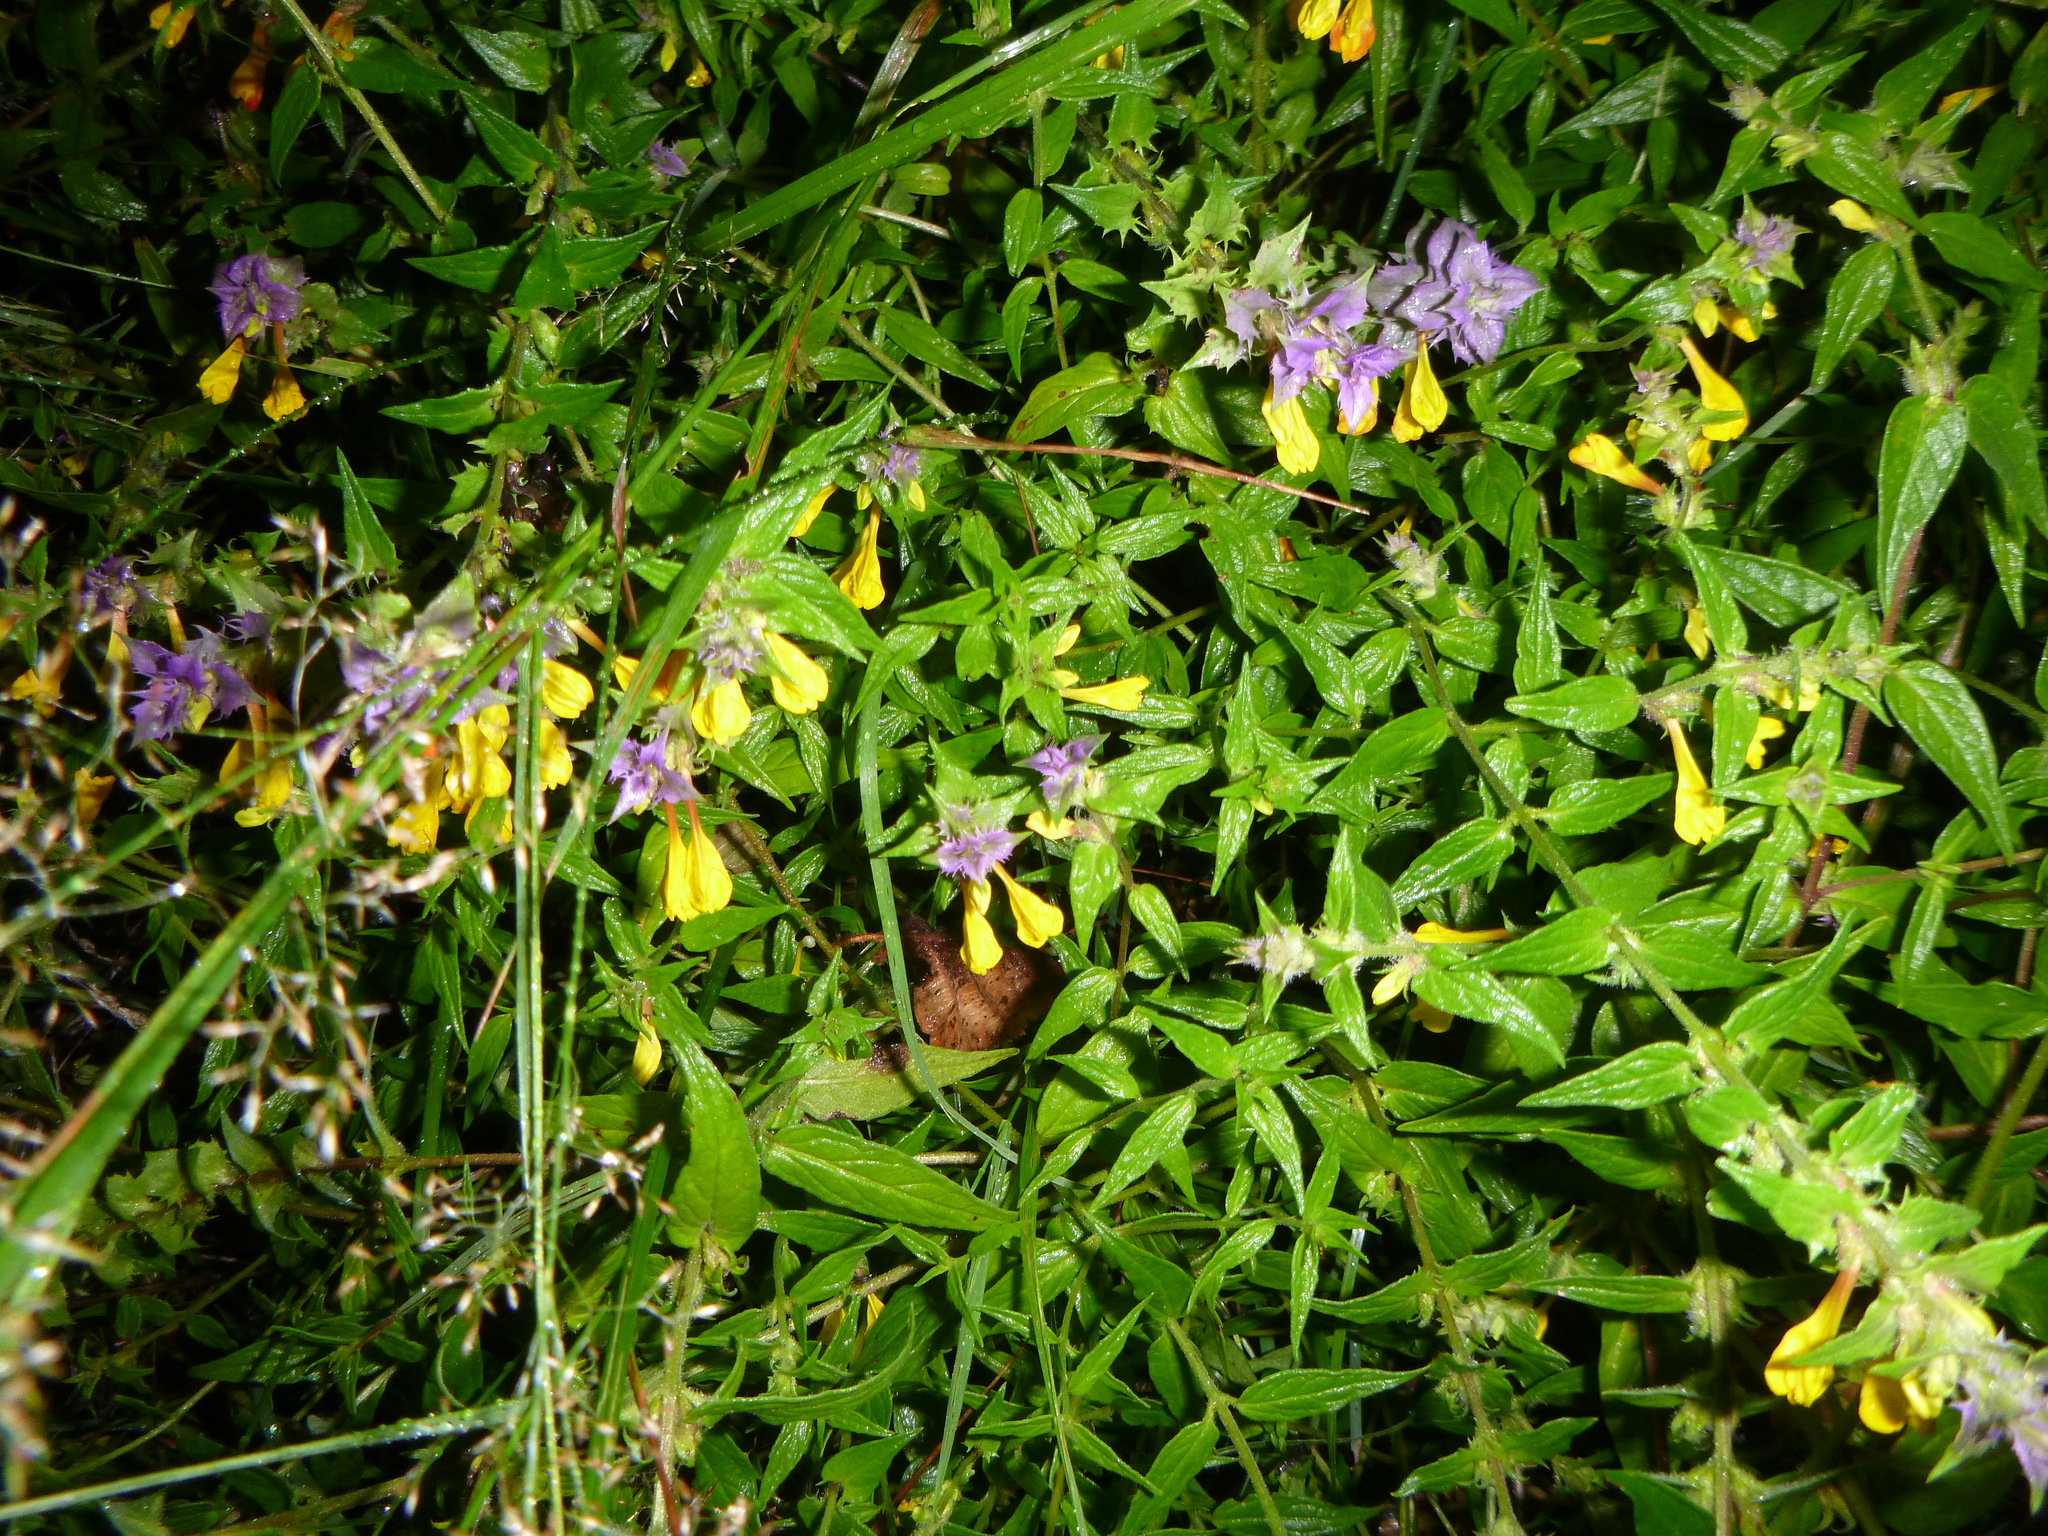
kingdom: Plantae
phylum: Tracheophyta
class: Magnoliopsida
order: Lamiales
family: Orobanchaceae
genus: Melampyrum
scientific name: Melampyrum nemorosum
